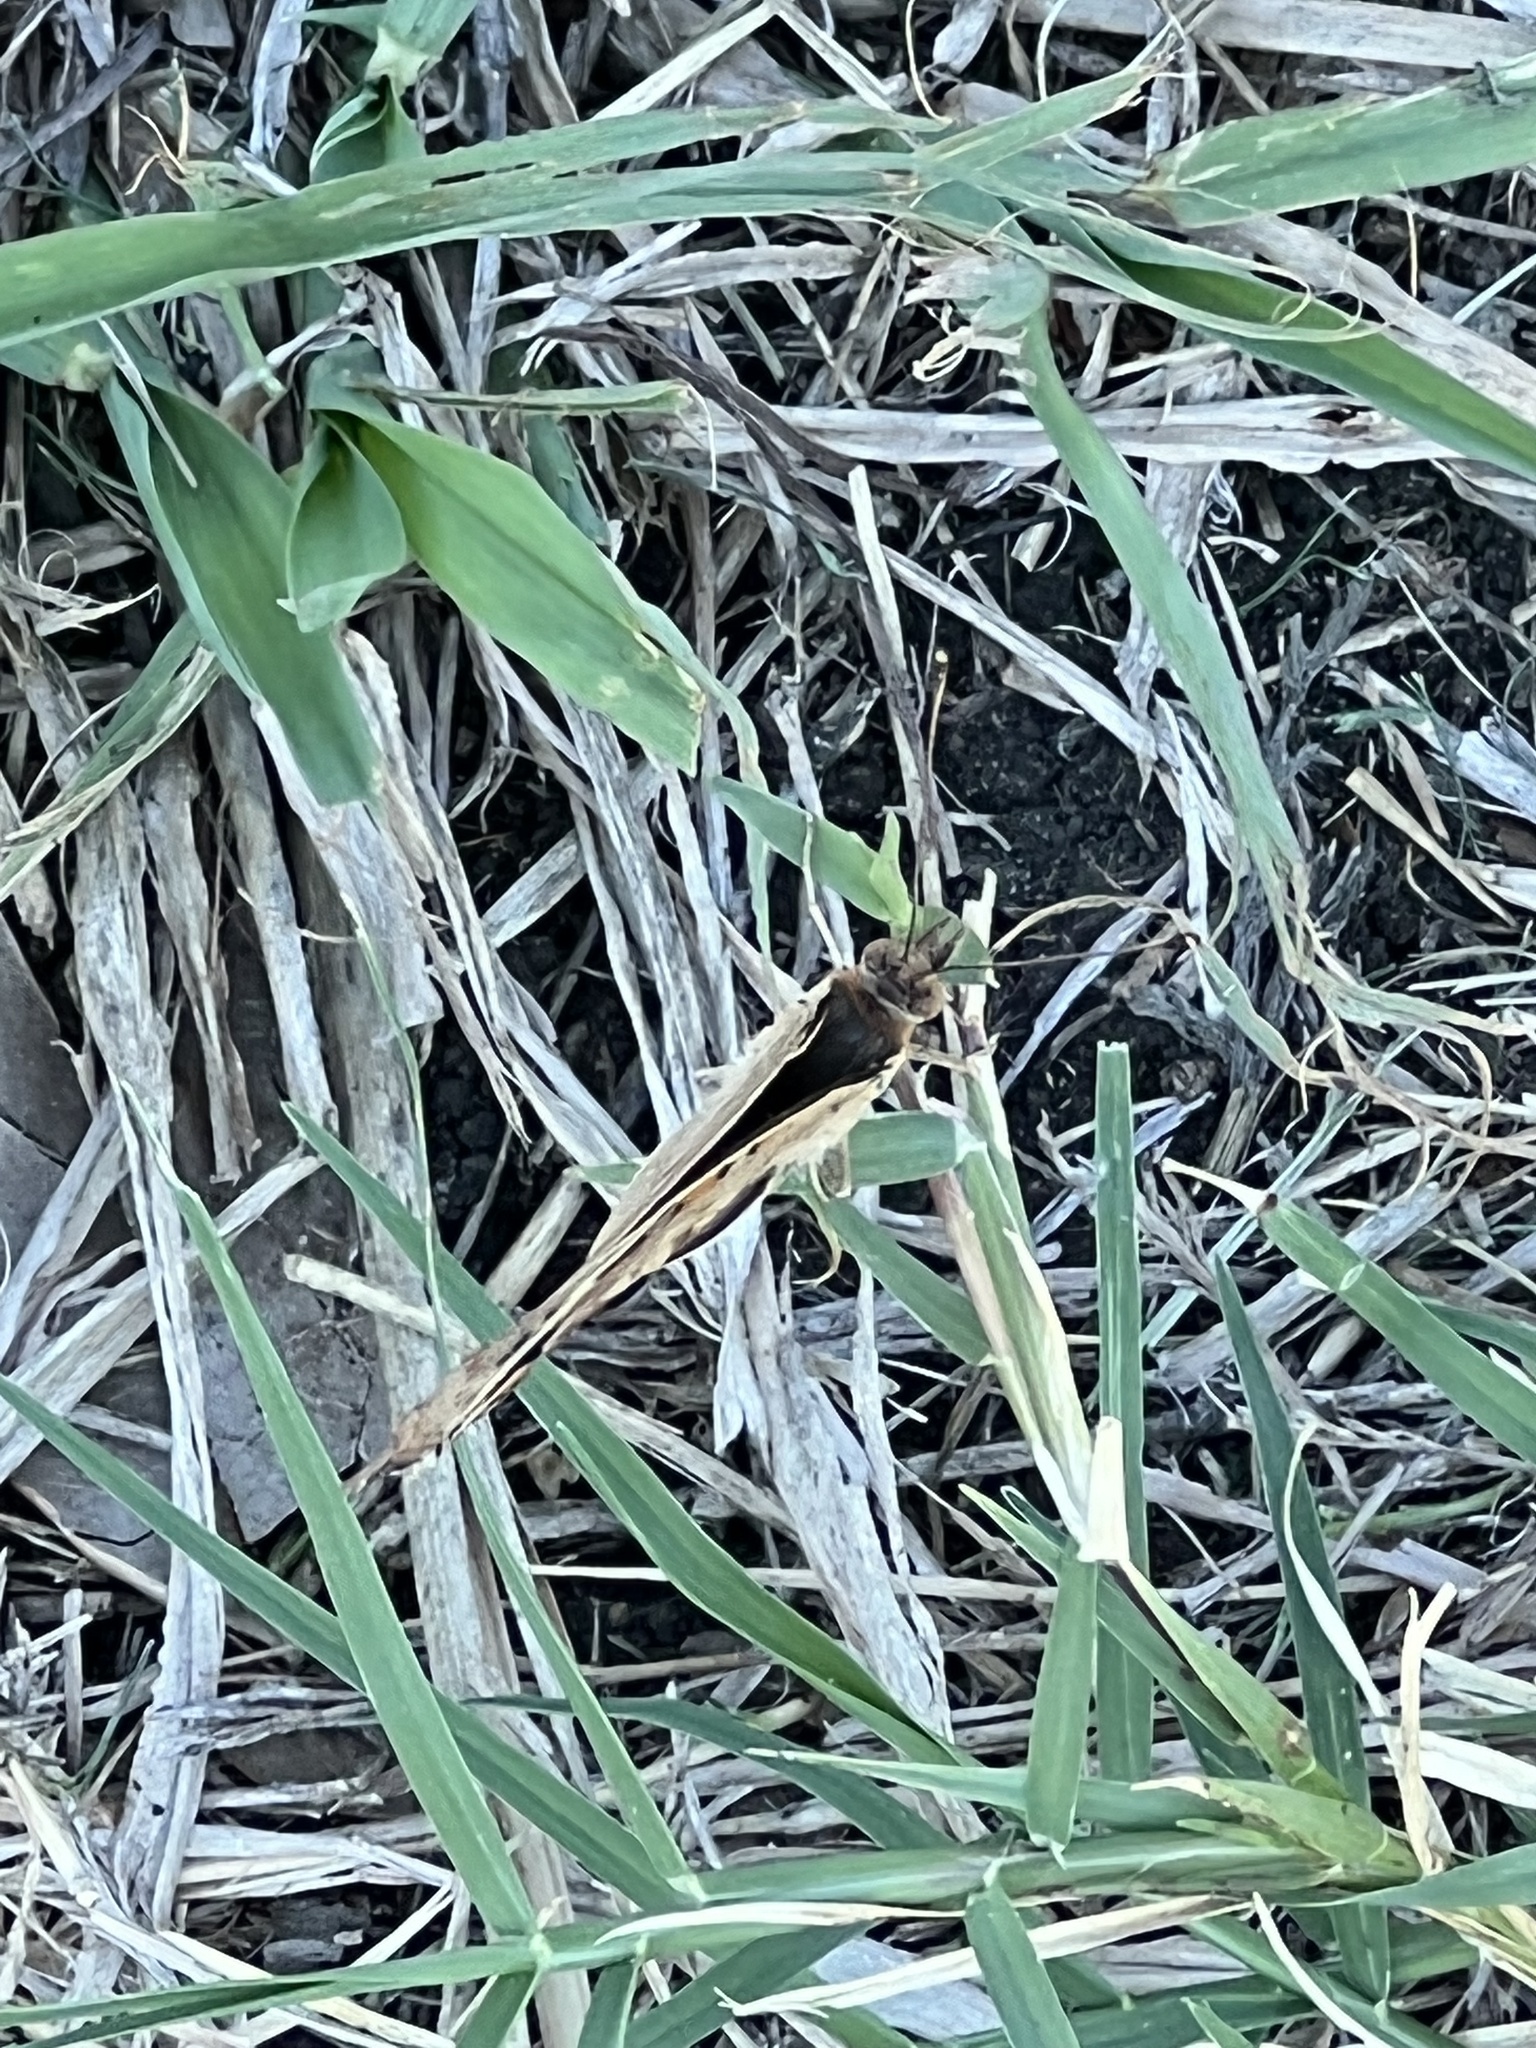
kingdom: Animalia
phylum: Arthropoda
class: Insecta
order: Lepidoptera
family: Nymphalidae
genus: Junonia
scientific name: Junonia coenia
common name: Common buckeye
